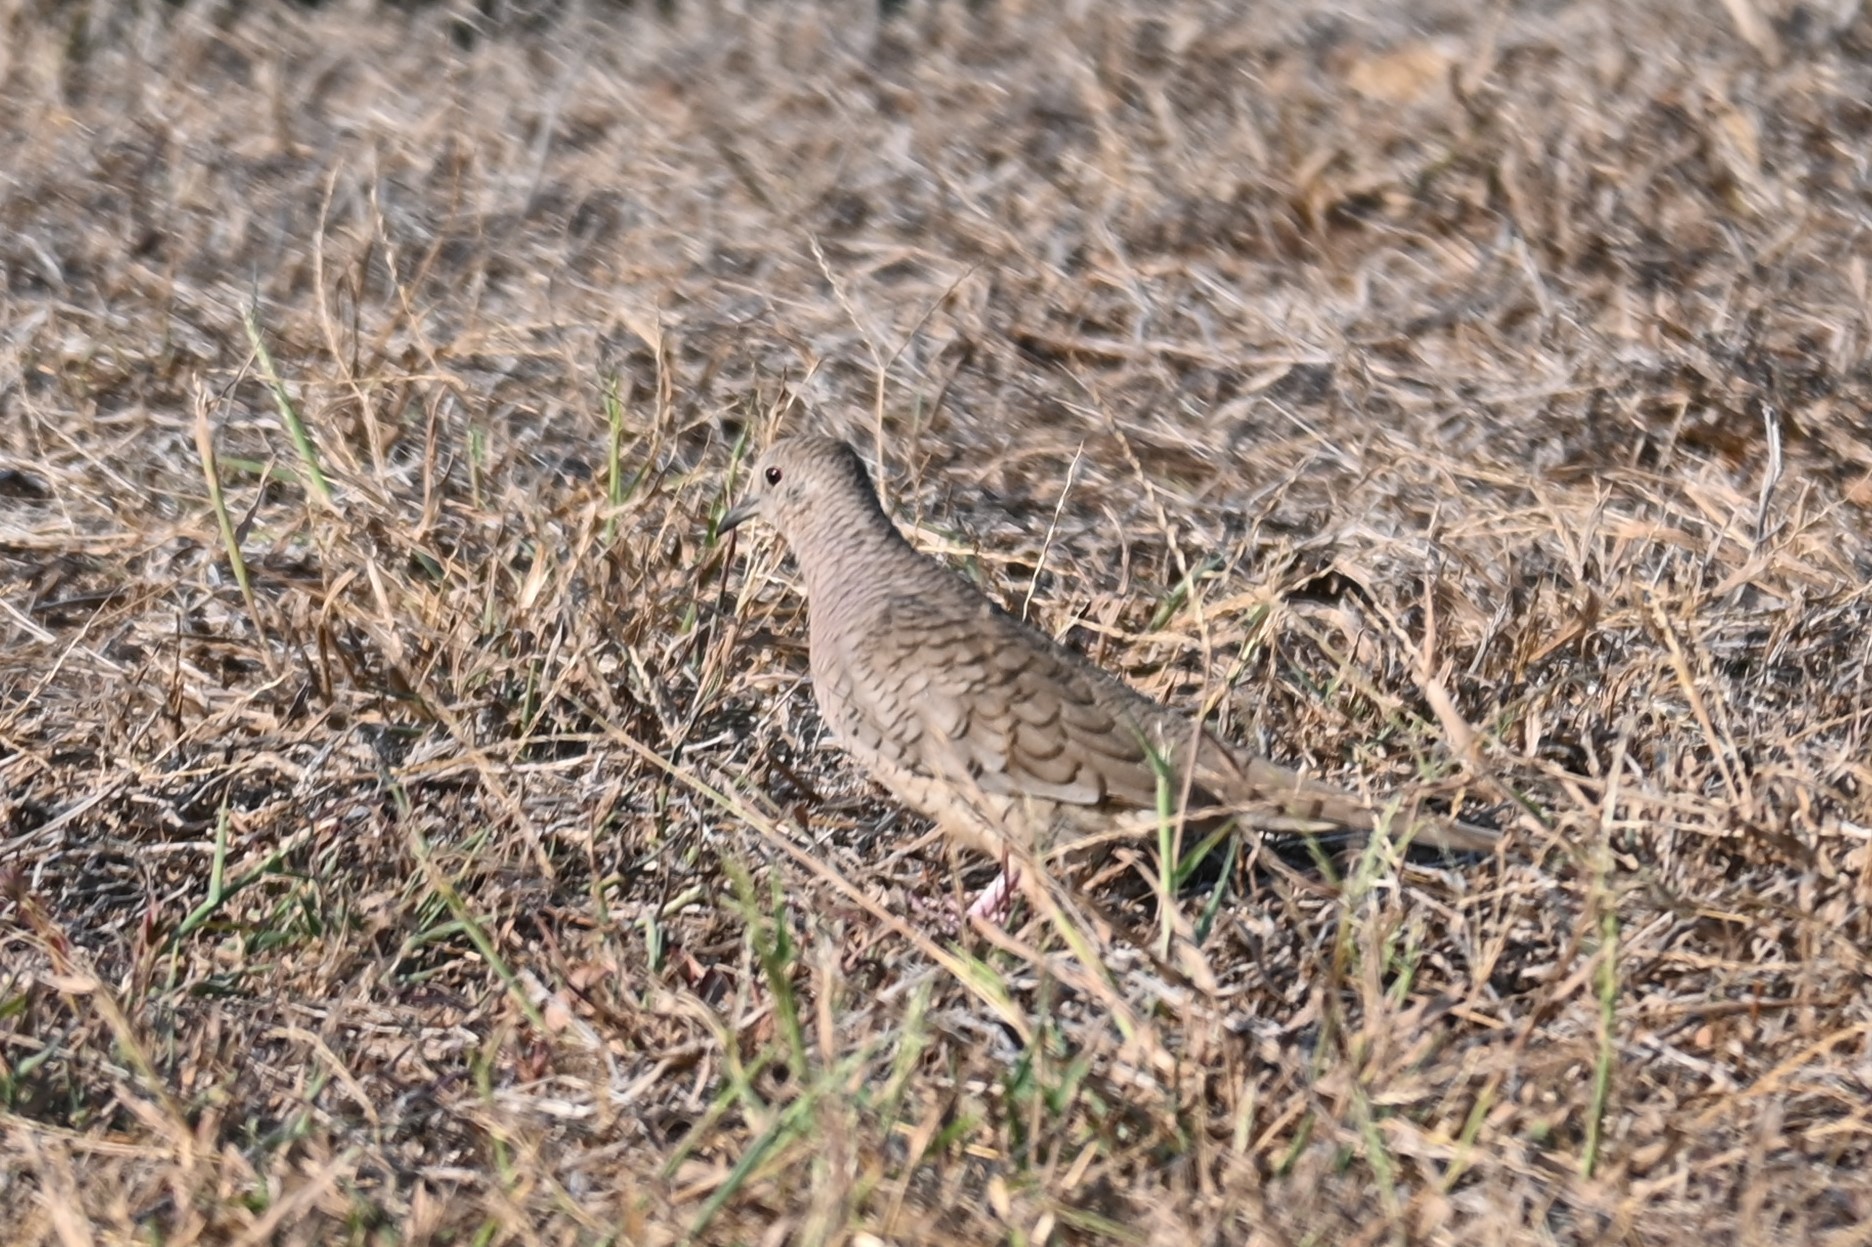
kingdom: Animalia
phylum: Chordata
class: Aves
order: Columbiformes
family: Columbidae
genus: Columbina
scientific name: Columbina inca
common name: Inca dove
